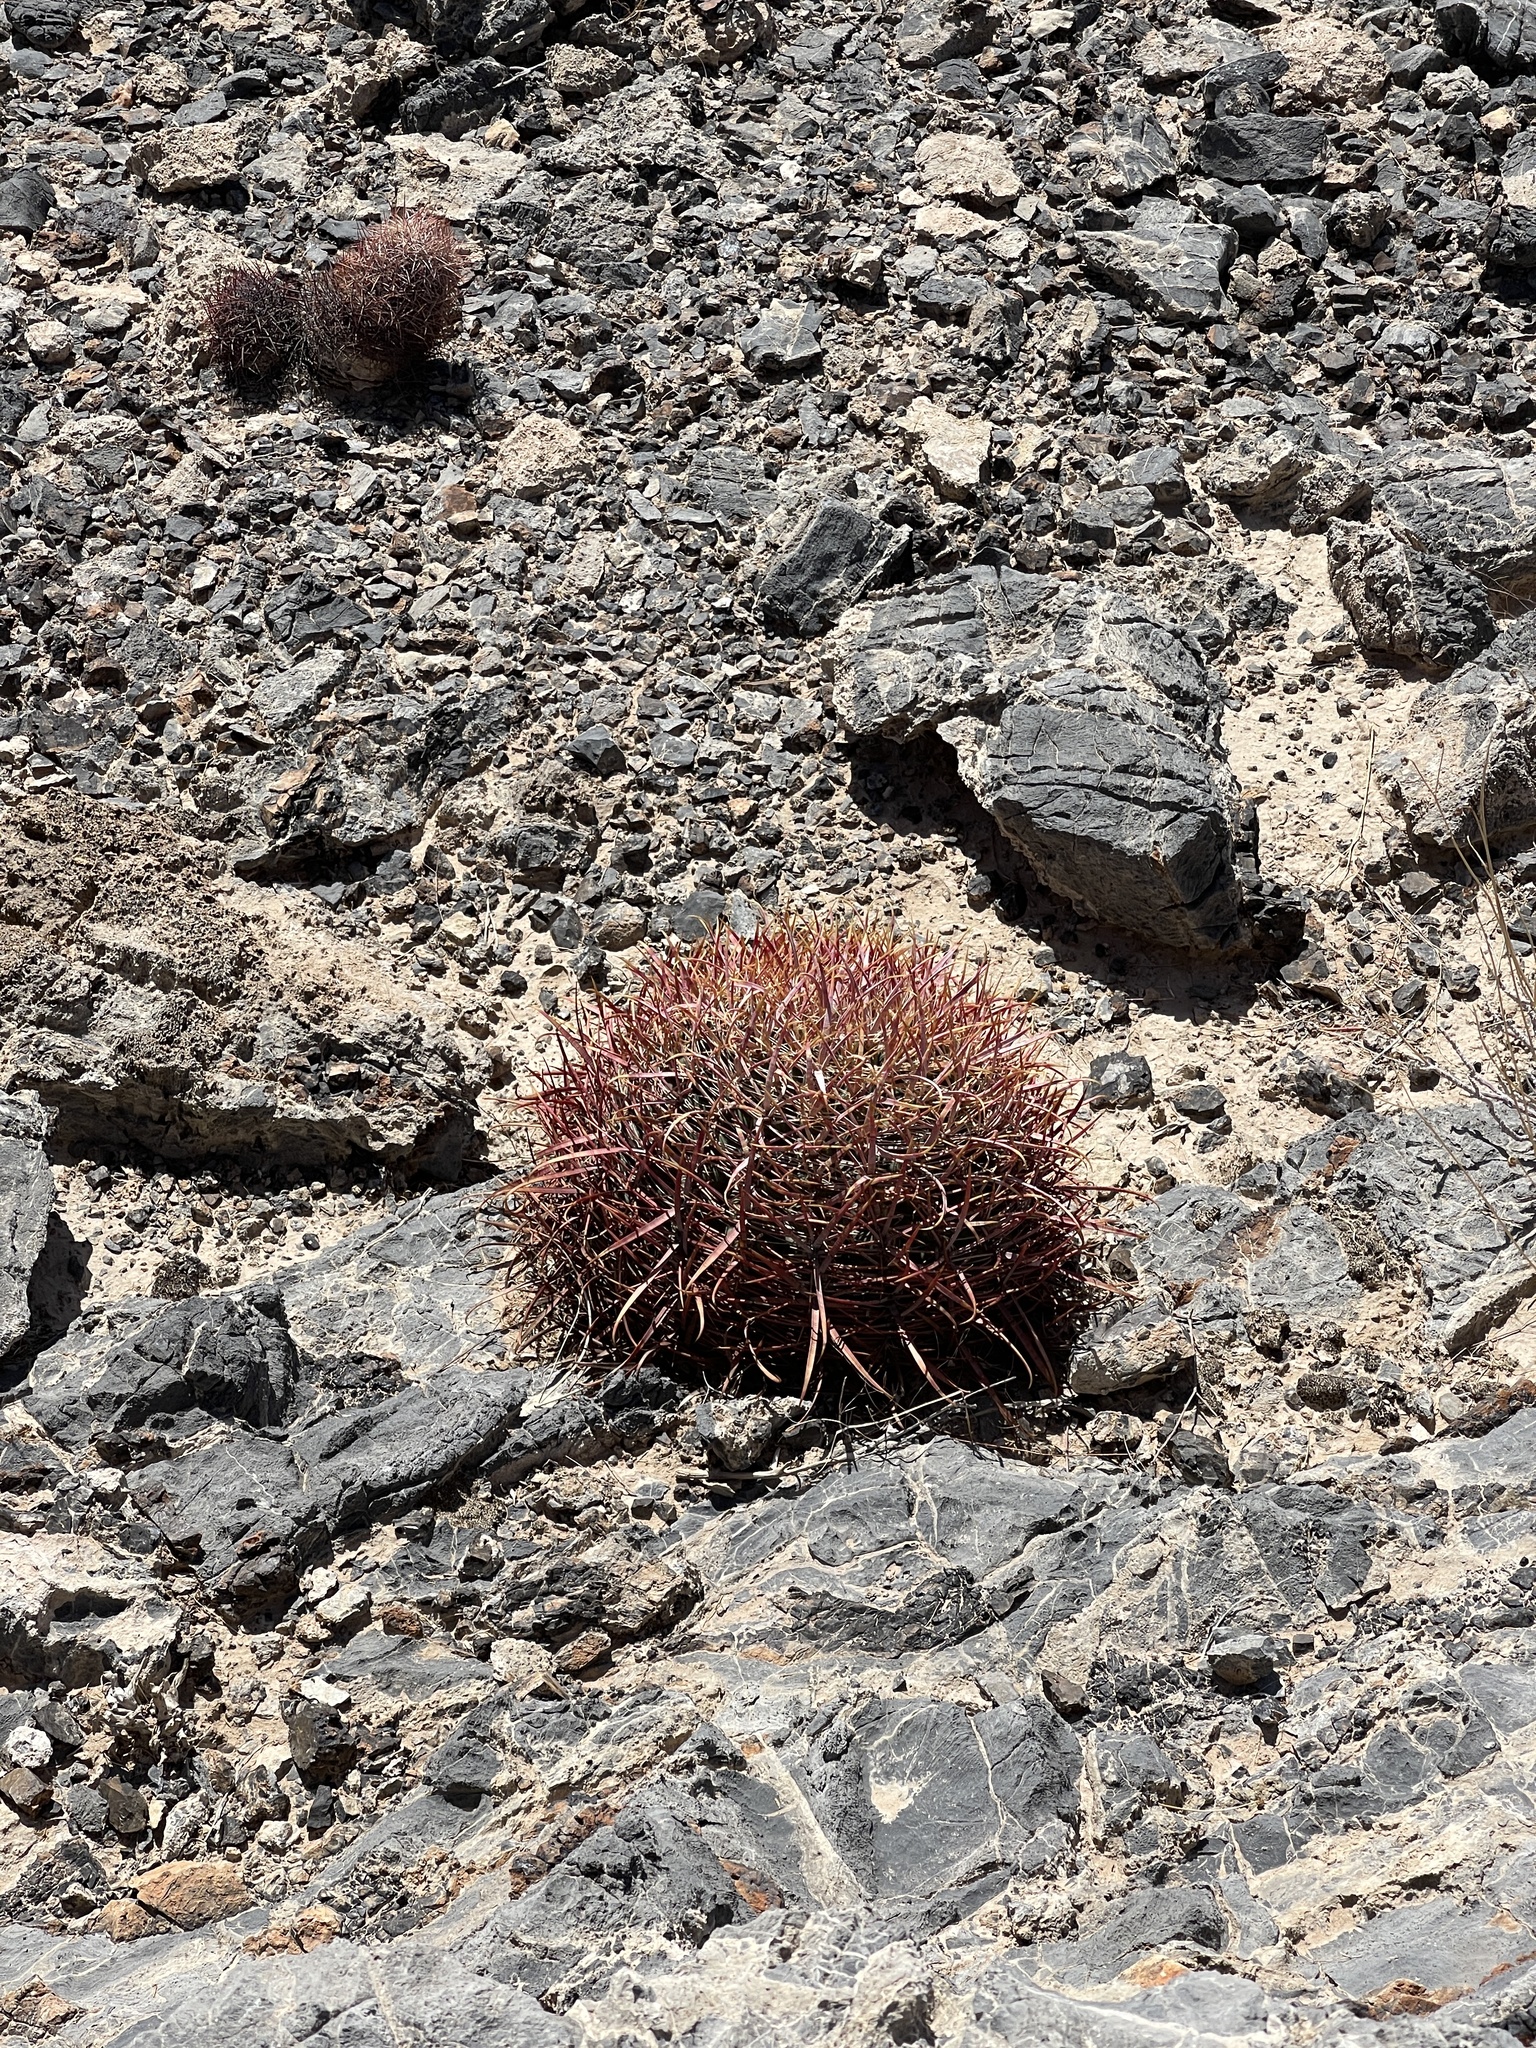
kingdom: Plantae
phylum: Tracheophyta
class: Magnoliopsida
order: Caryophyllales
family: Cactaceae
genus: Ferocactus
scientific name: Ferocactus cylindraceus
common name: California barrel cactus
